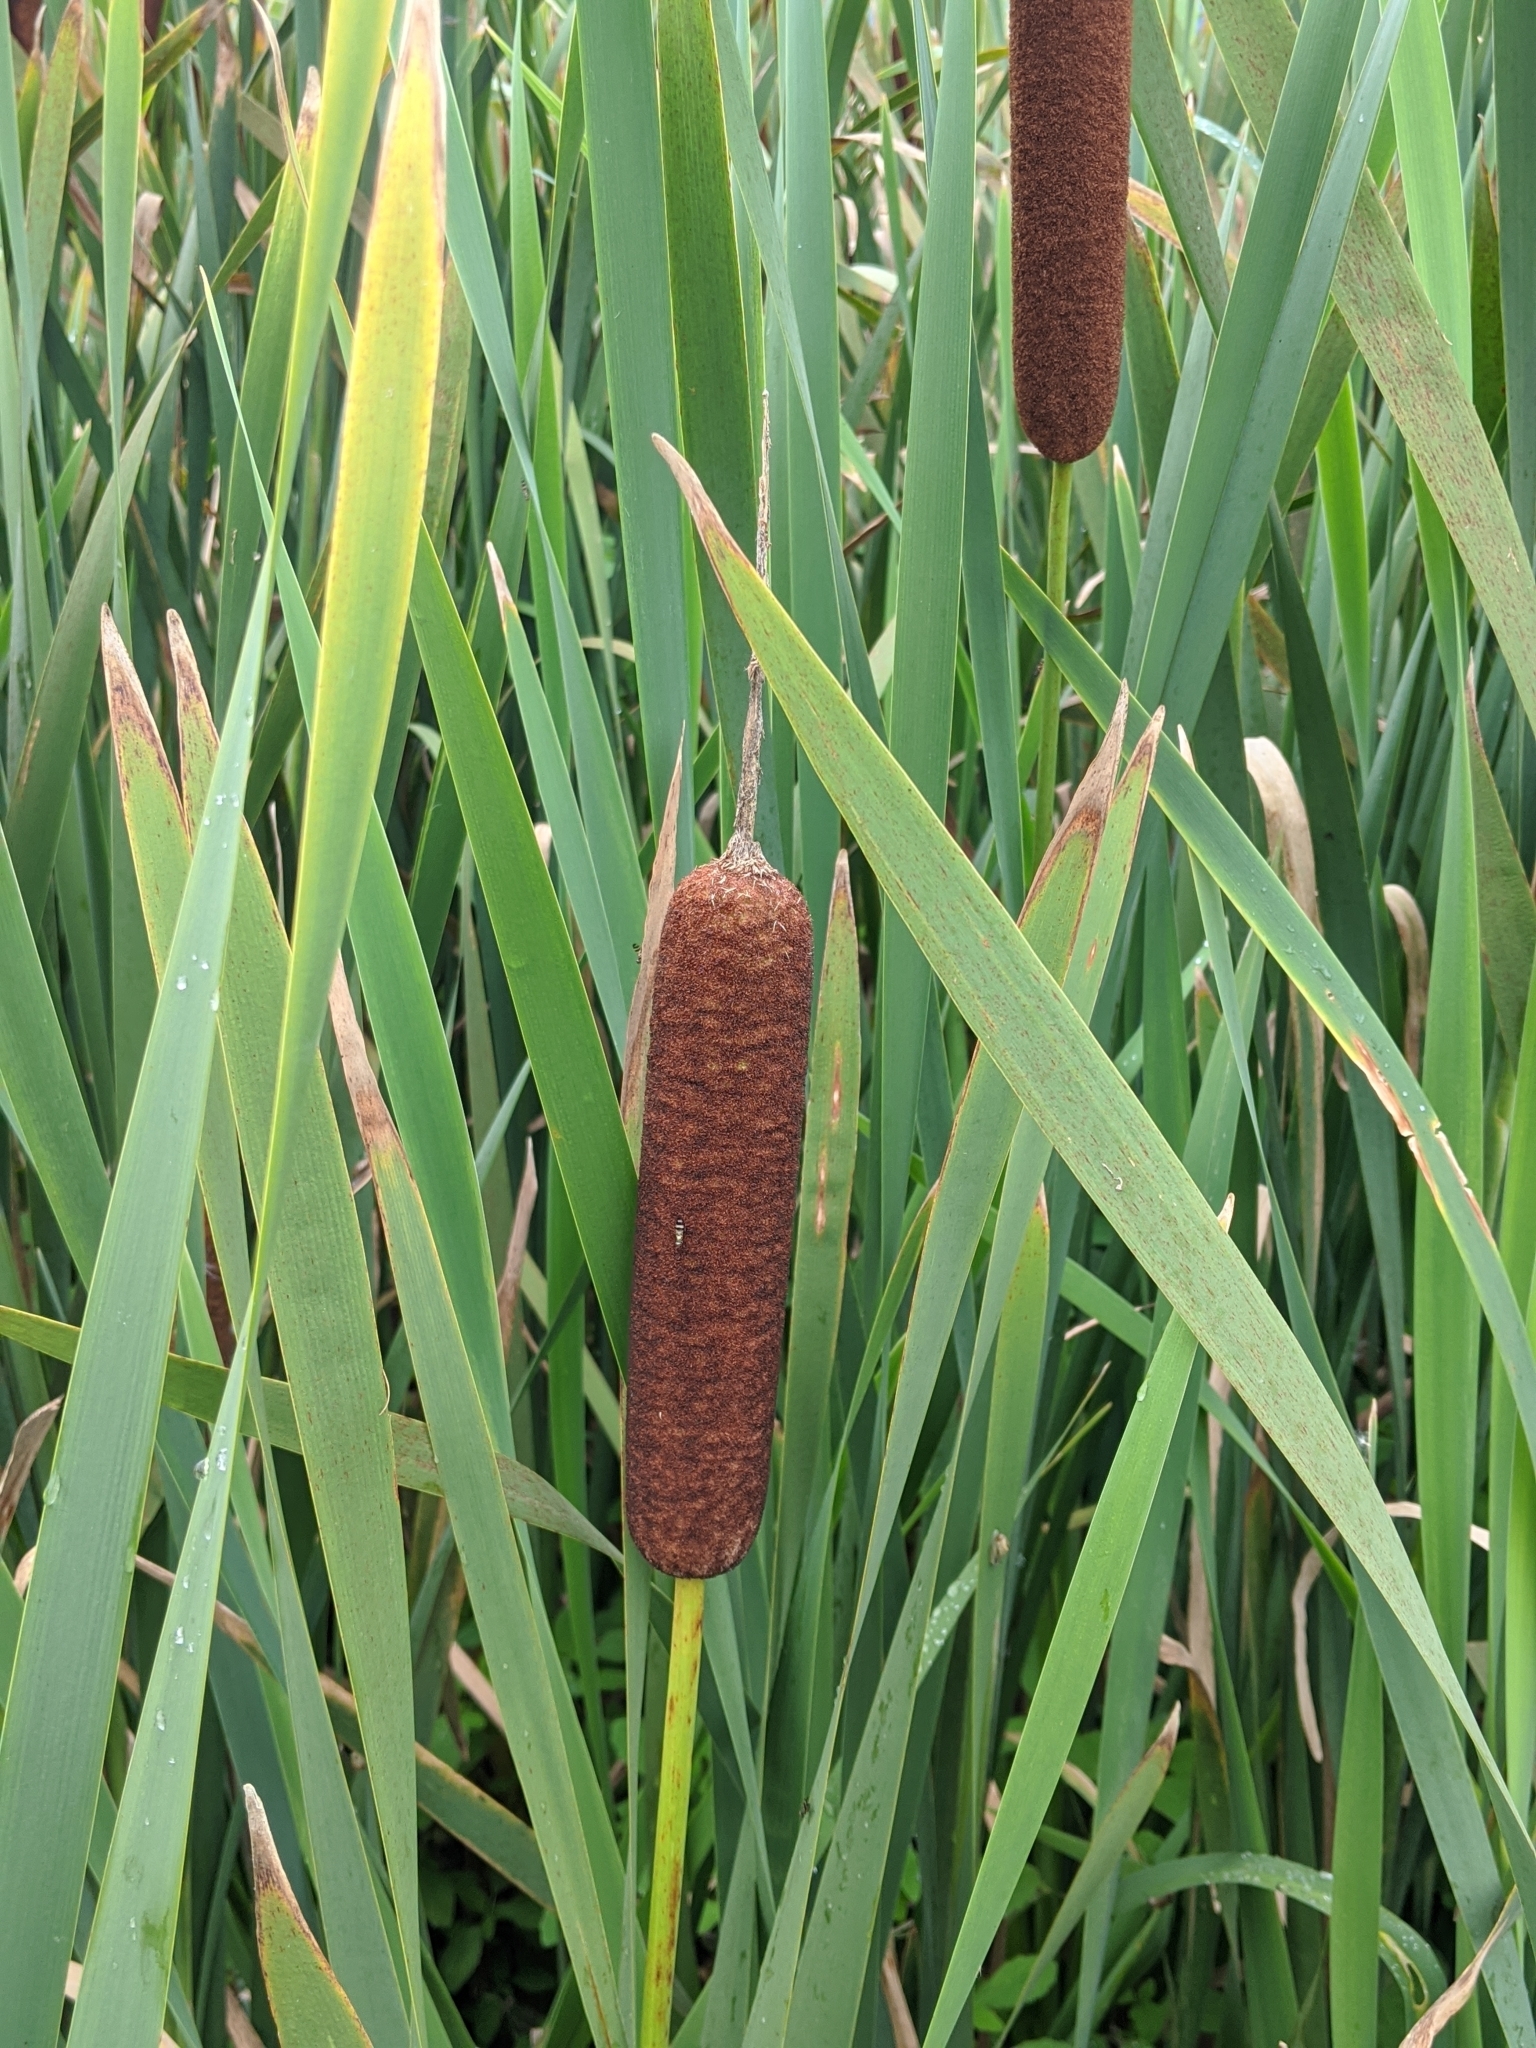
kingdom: Plantae
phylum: Tracheophyta
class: Liliopsida
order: Poales
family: Typhaceae
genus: Typha
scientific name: Typha latifolia
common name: Broadleaf cattail
